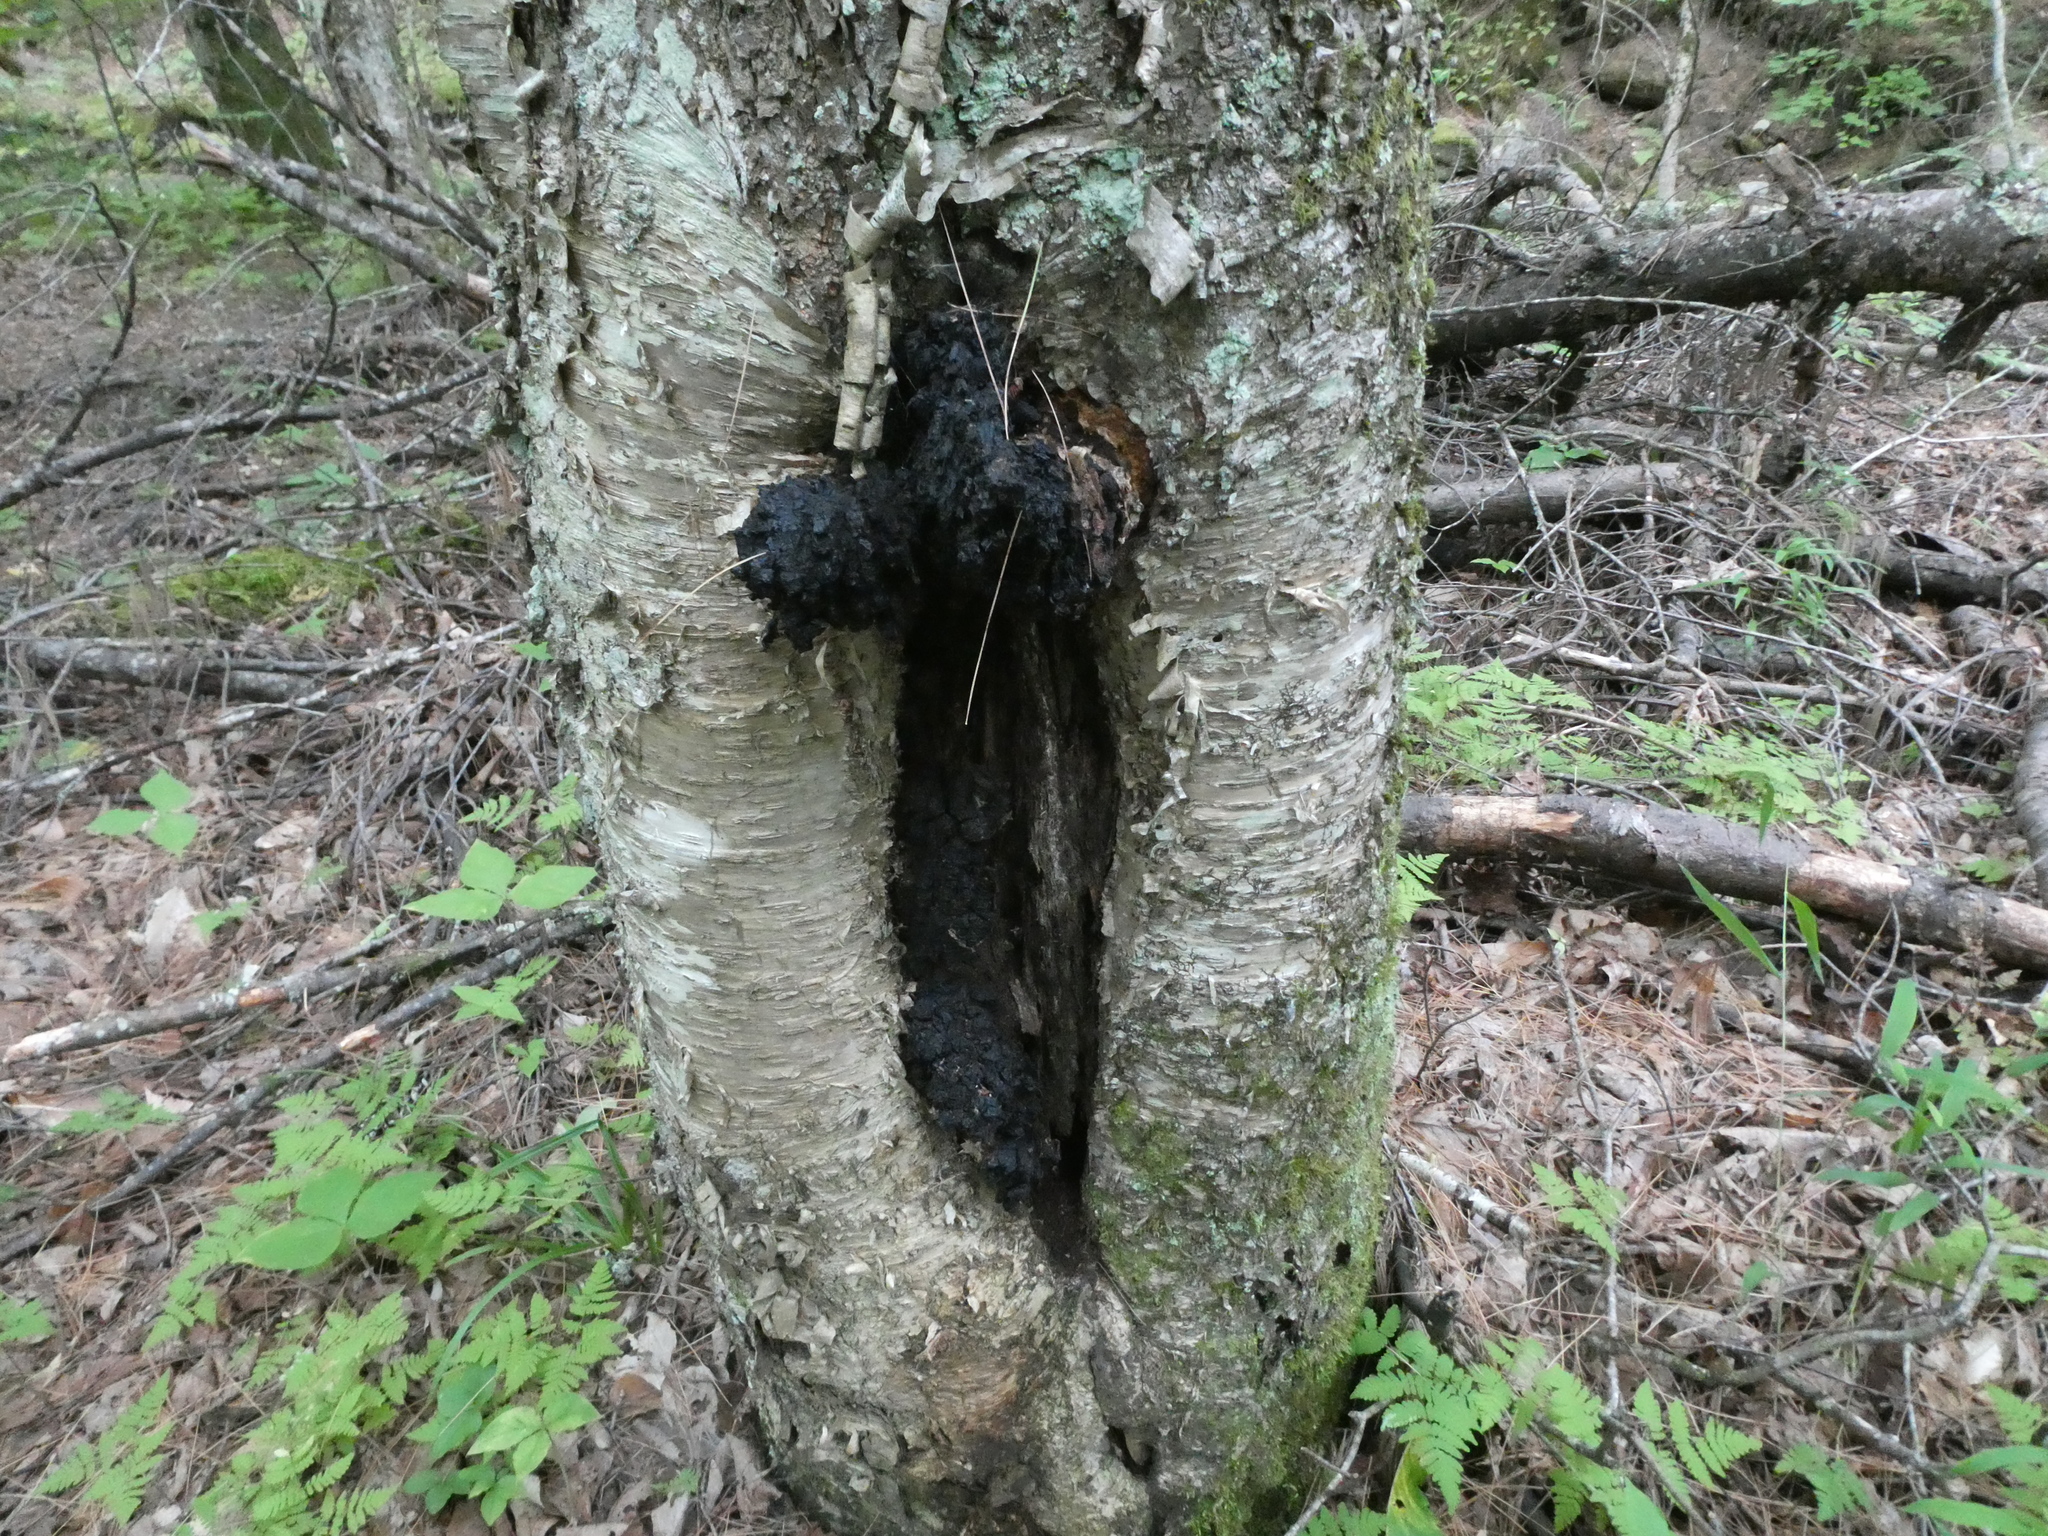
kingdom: Plantae
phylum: Tracheophyta
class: Magnoliopsida
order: Fagales
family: Betulaceae
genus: Betula
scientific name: Betula alleghaniensis
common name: Yellow birch
